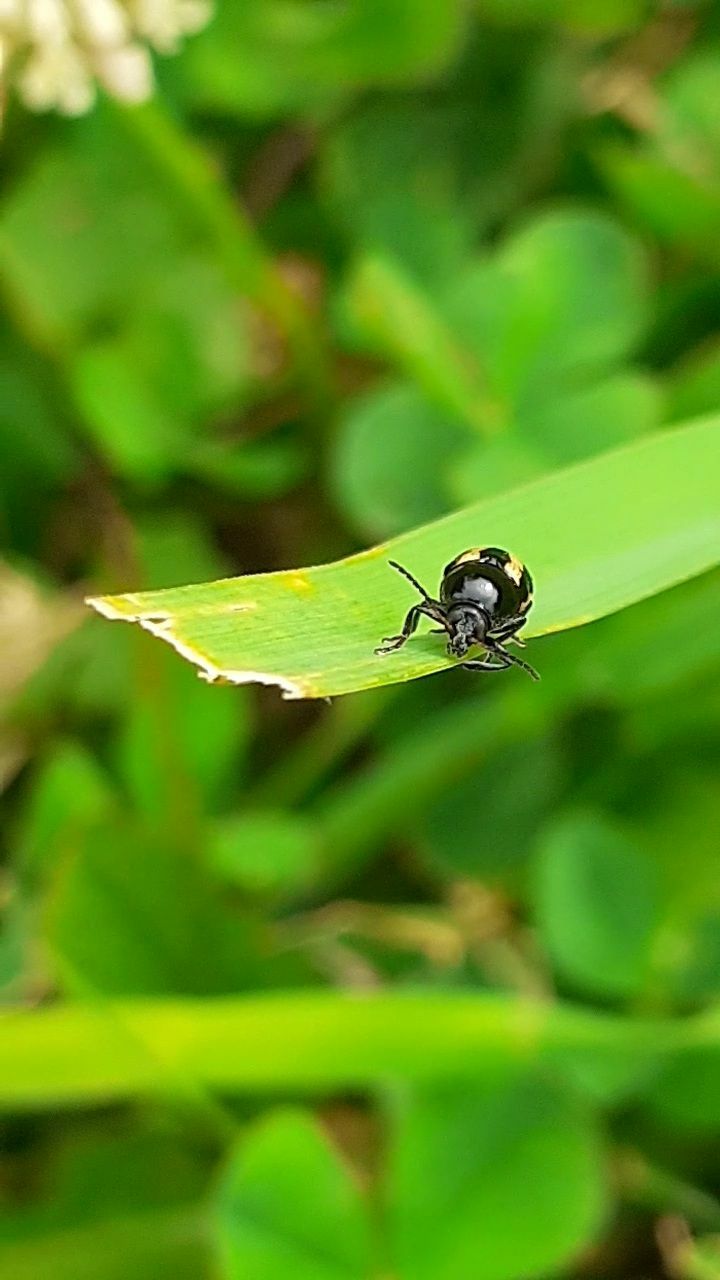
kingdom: Animalia
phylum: Arthropoda
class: Insecta
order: Coleoptera
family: Chrysomelidae
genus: Acalymma
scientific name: Acalymma vittatum
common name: Striped cucumber beetle
